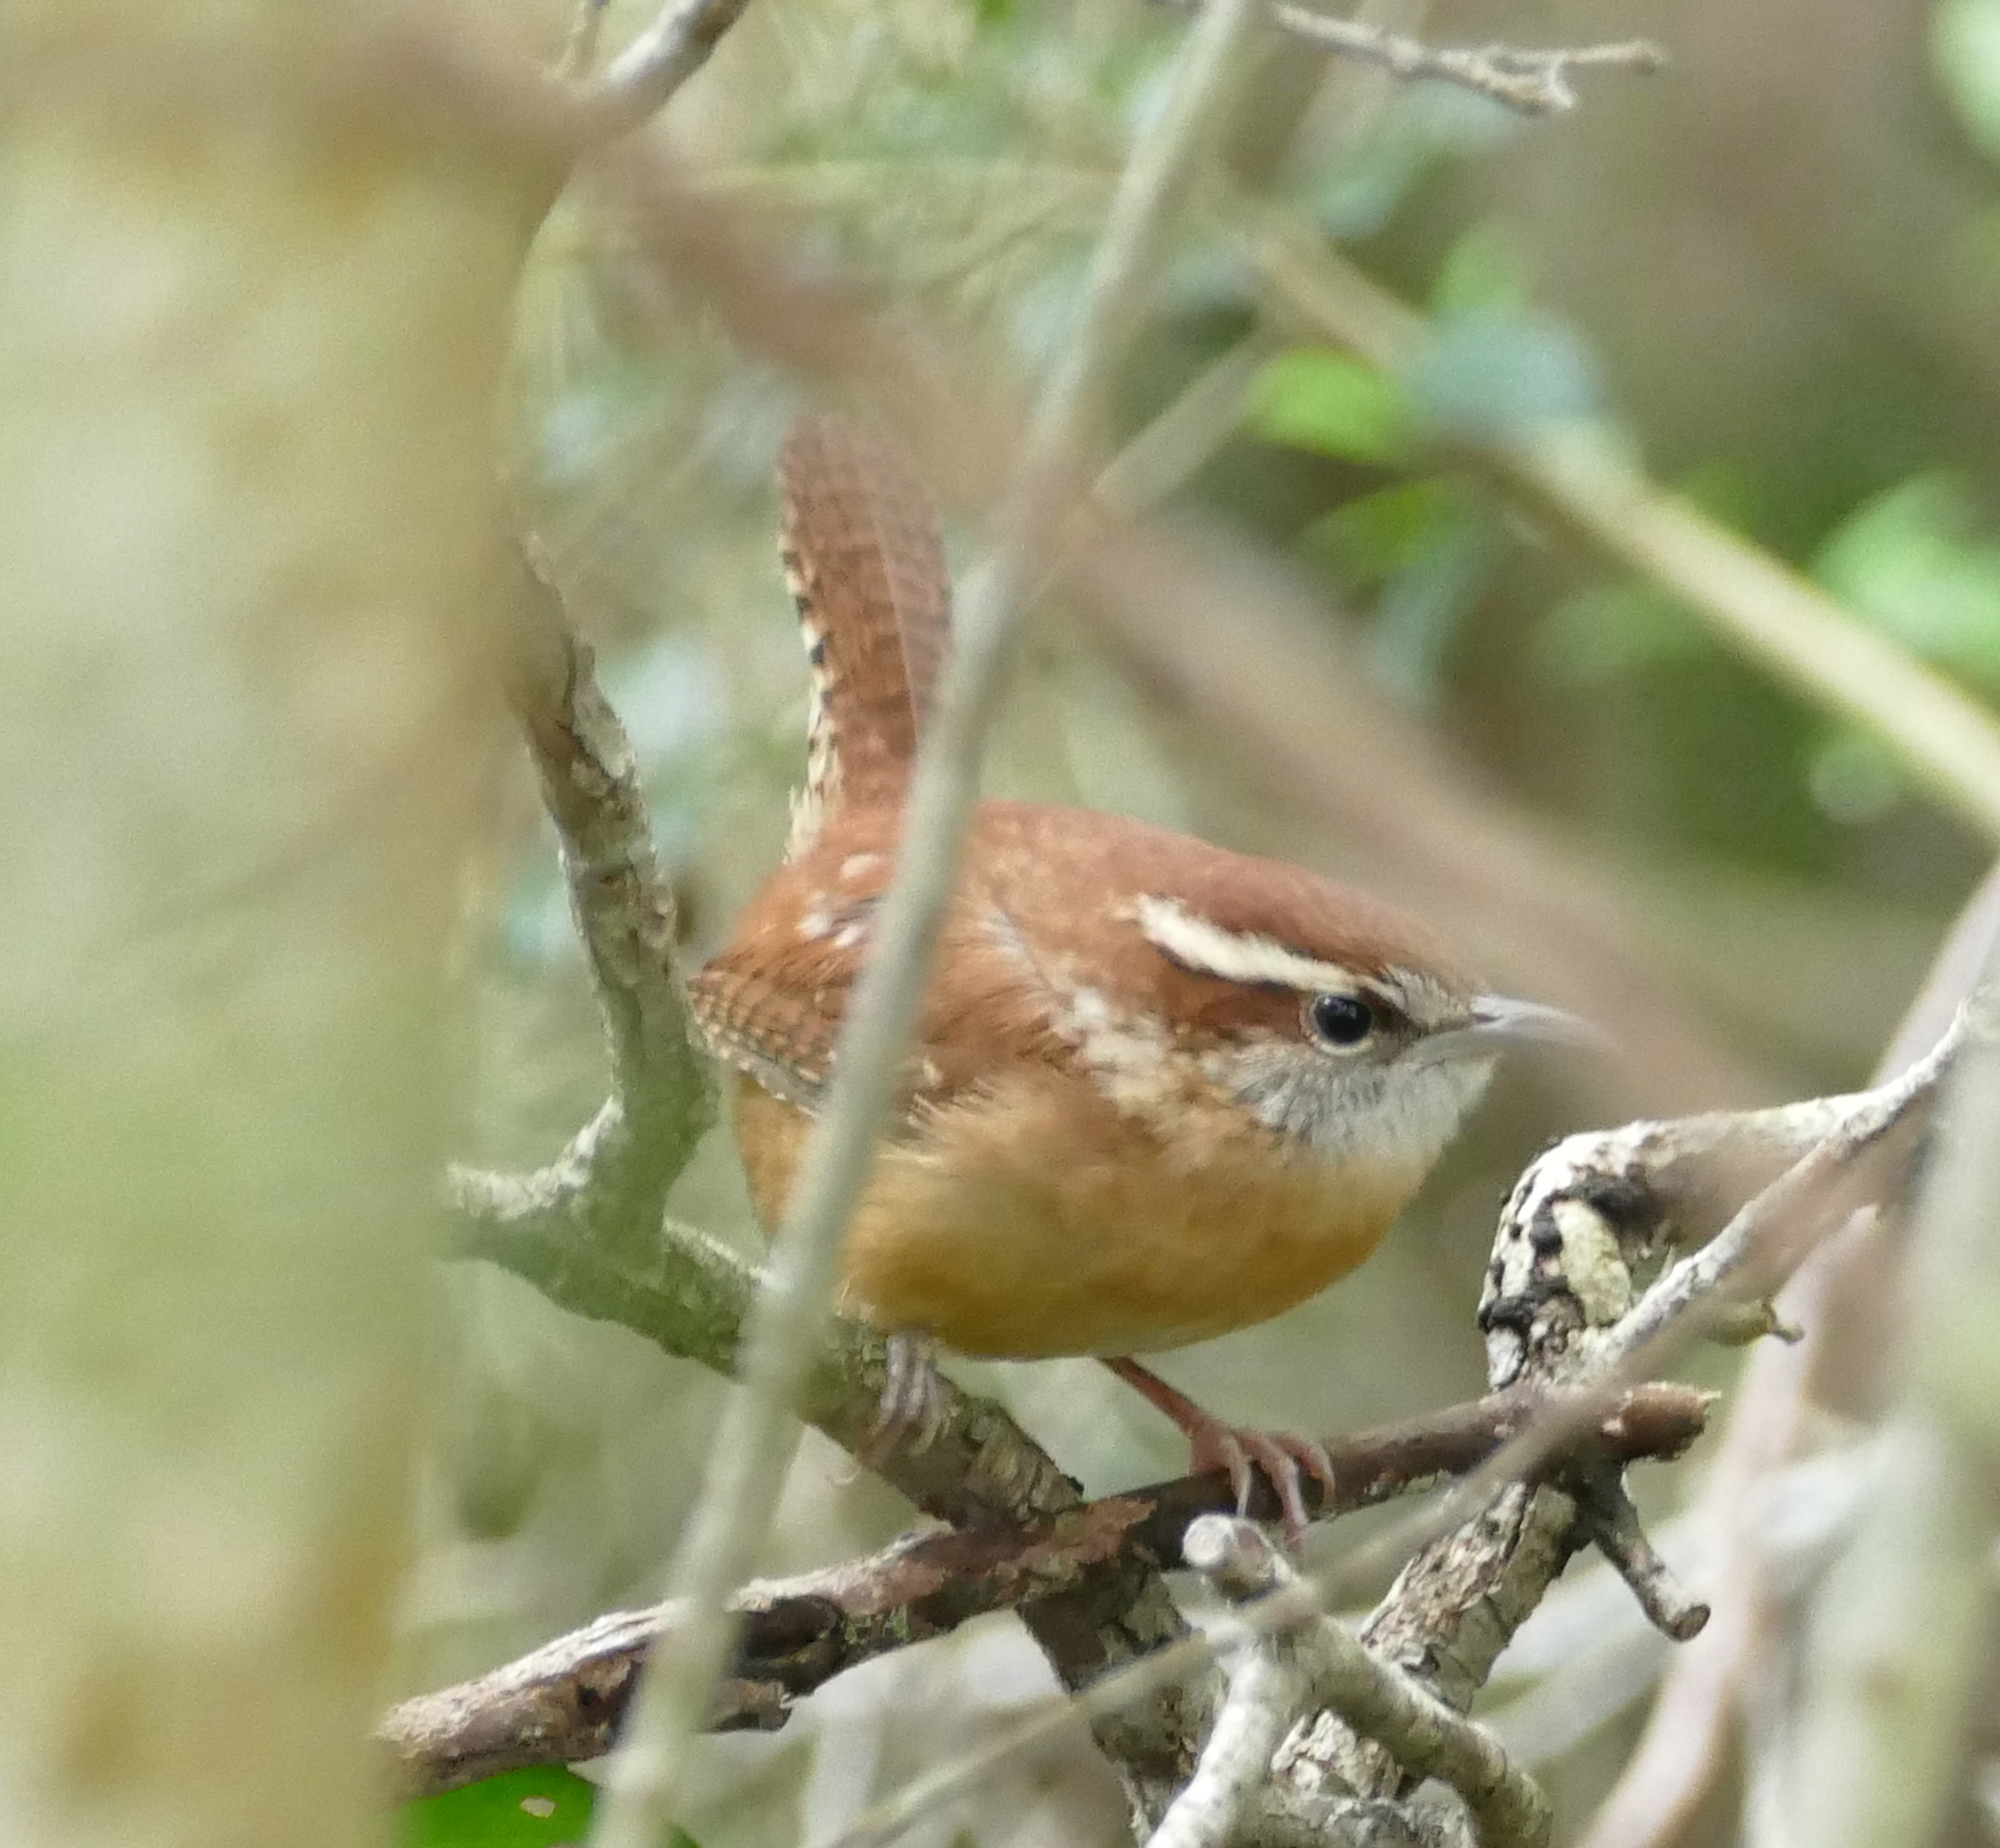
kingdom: Animalia
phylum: Chordata
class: Aves
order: Passeriformes
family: Troglodytidae
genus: Thryothorus
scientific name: Thryothorus ludovicianus
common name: Carolina wren
